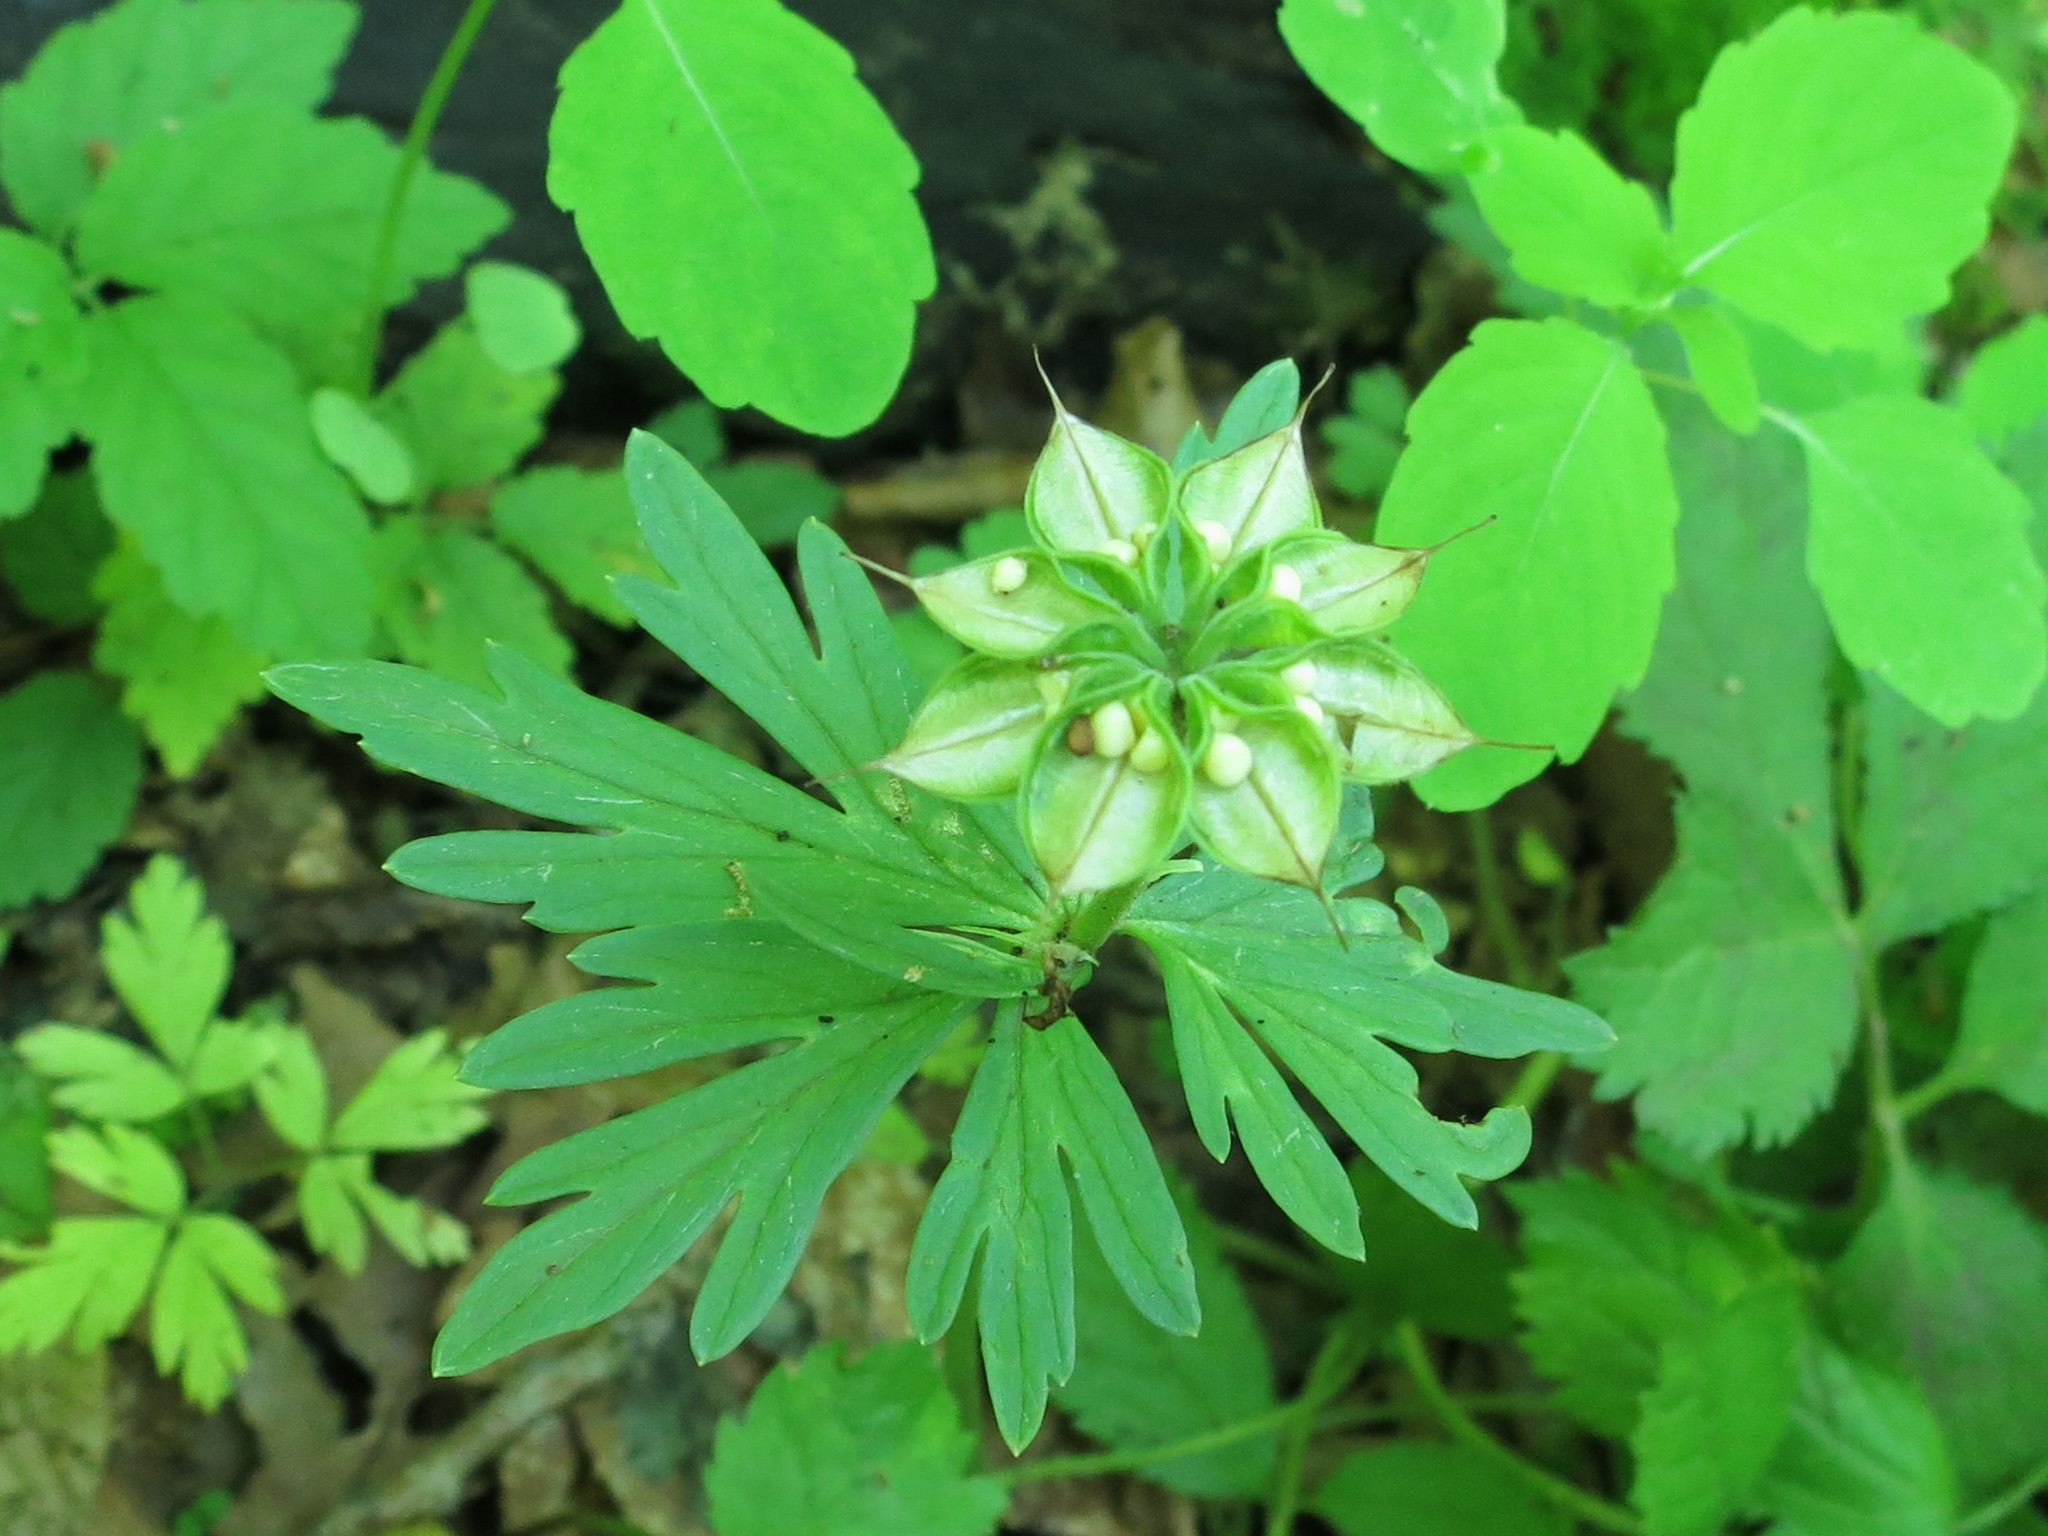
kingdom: Plantae
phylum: Tracheophyta
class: Magnoliopsida
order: Ranunculales
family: Ranunculaceae
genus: Eranthis
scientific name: Eranthis stellata
